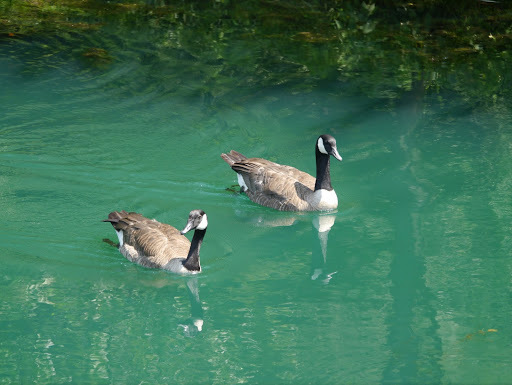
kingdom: Animalia
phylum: Chordata
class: Aves
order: Anseriformes
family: Anatidae
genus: Branta
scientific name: Branta canadensis
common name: Canada goose
